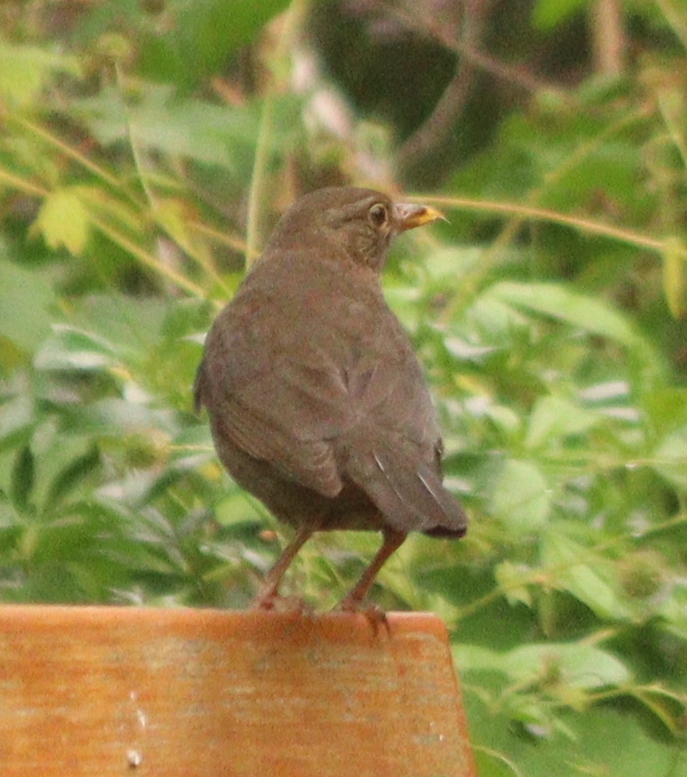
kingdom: Animalia
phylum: Chordata
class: Aves
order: Passeriformes
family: Turdidae
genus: Turdus
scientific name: Turdus merula
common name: Common blackbird
